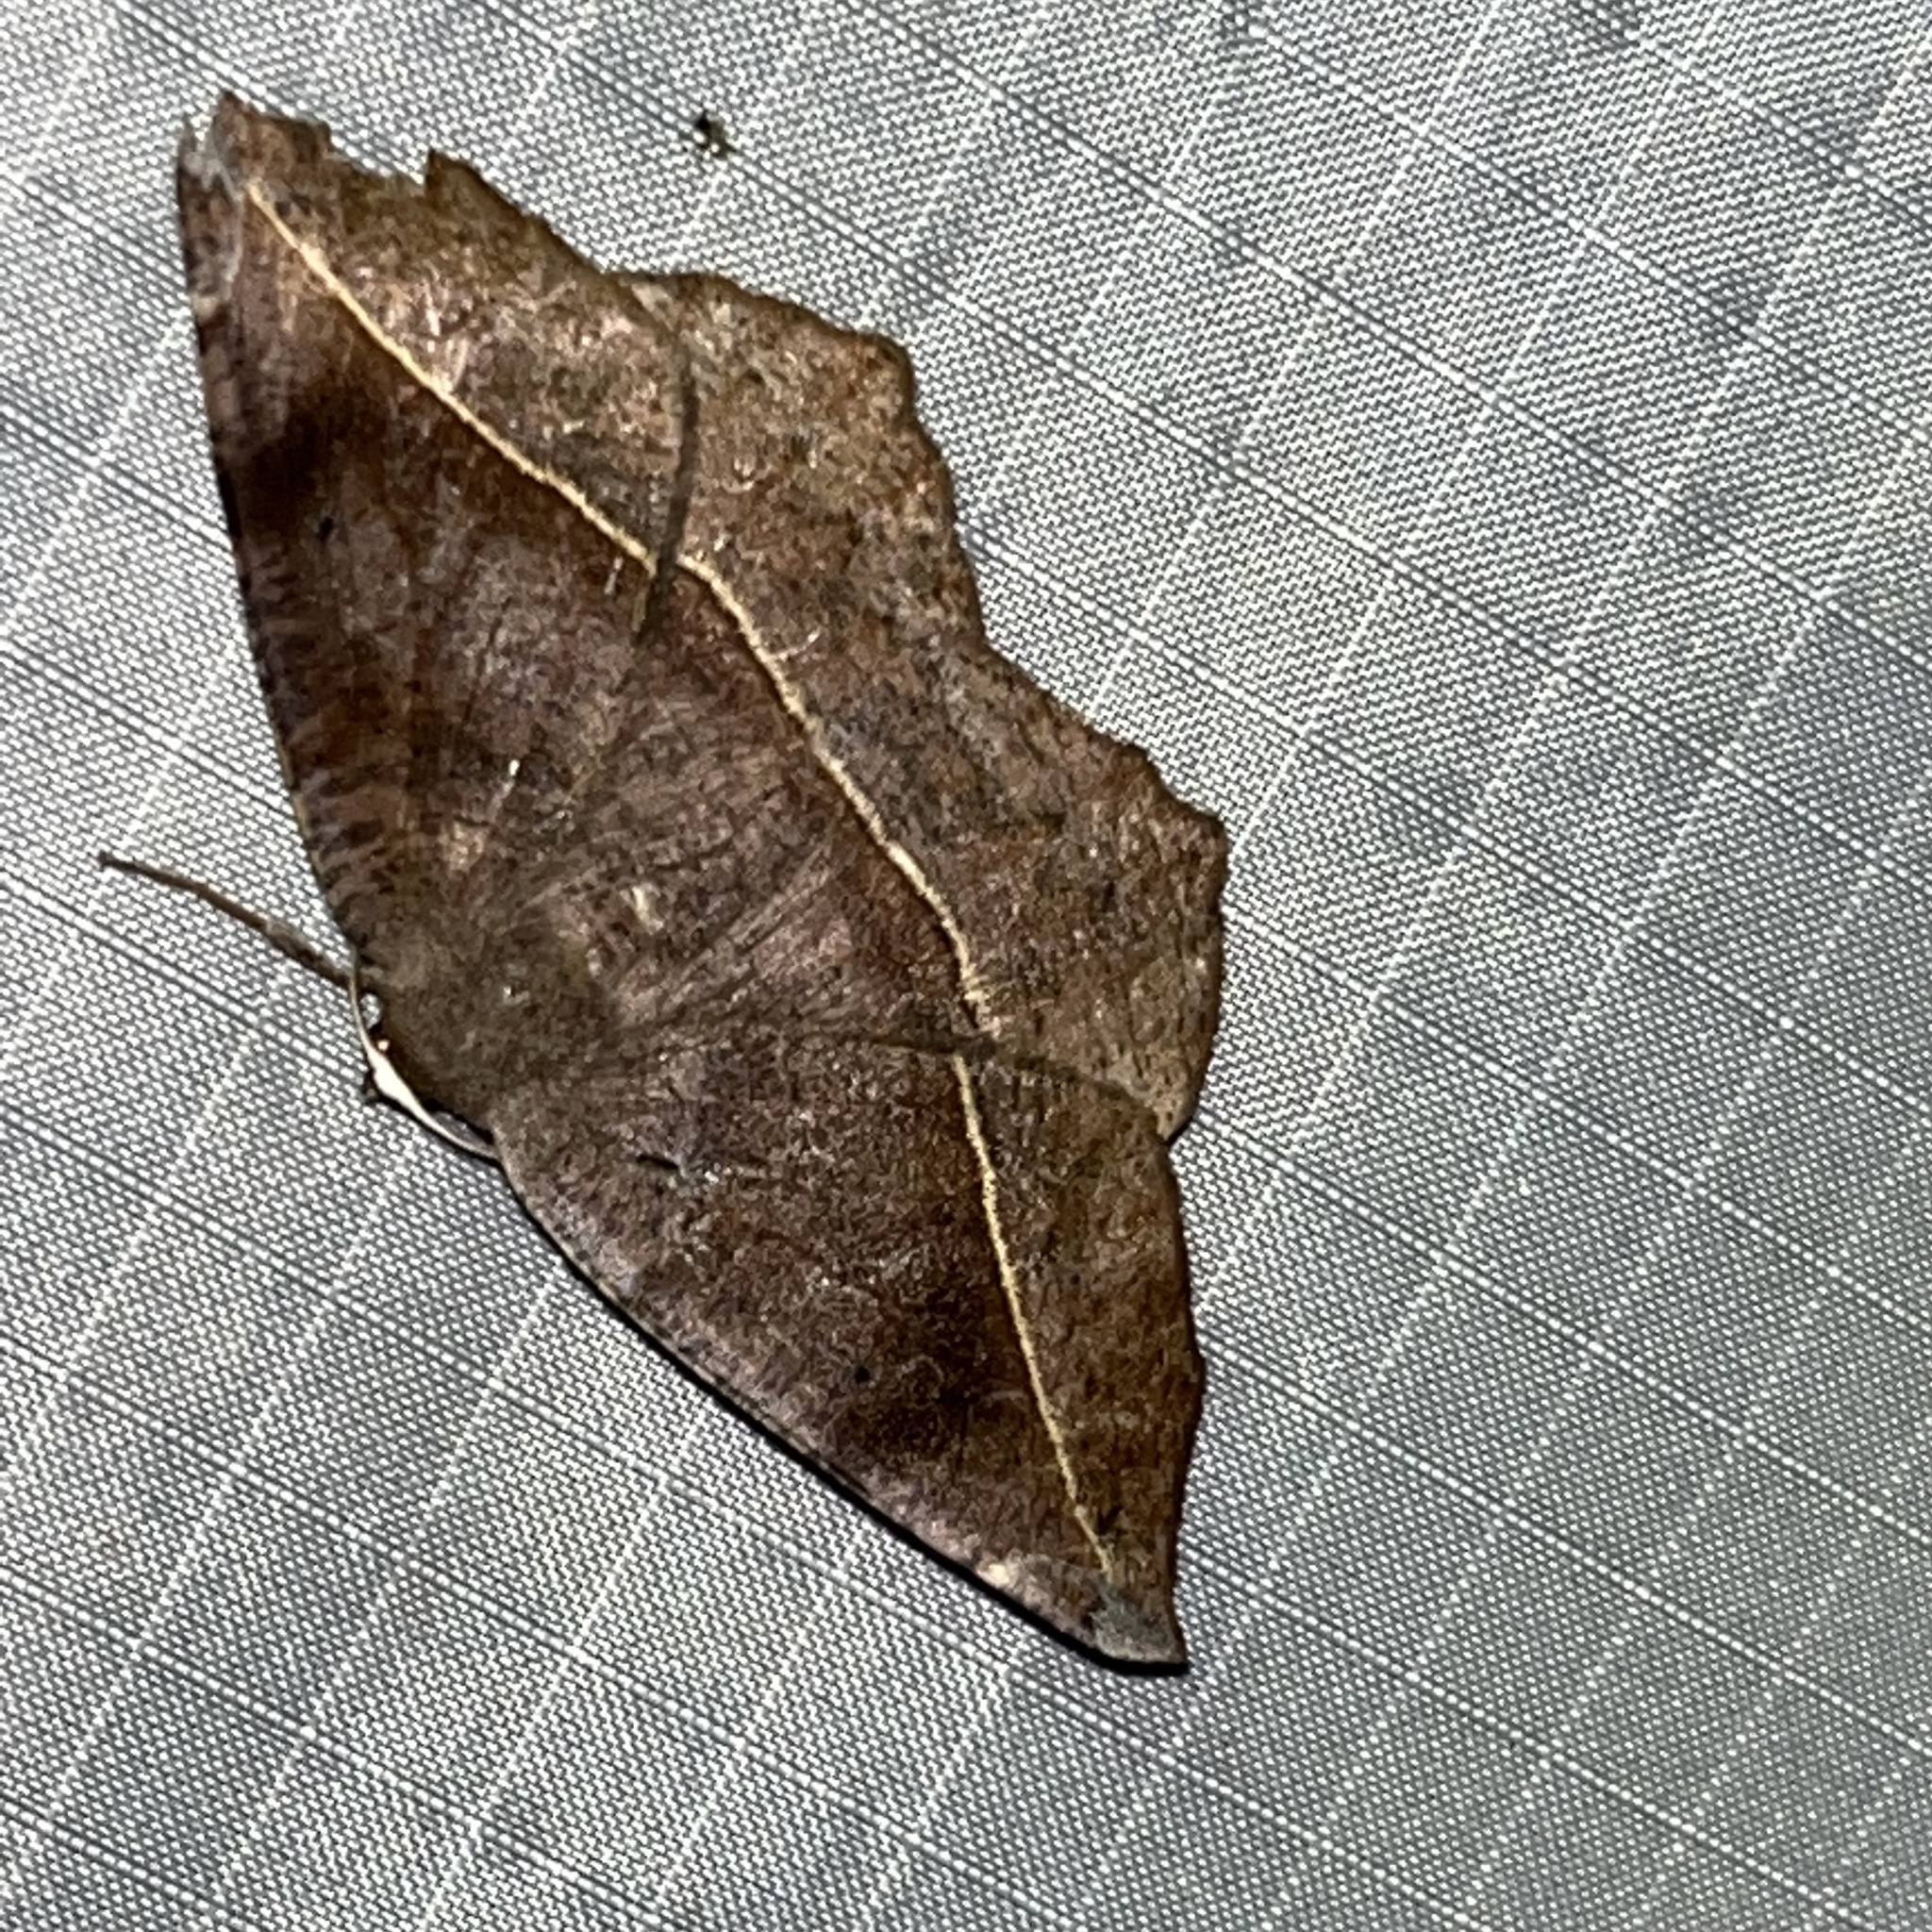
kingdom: Animalia
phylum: Arthropoda
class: Insecta
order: Lepidoptera
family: Geometridae
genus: Eutrapela
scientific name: Eutrapela clemataria
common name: Curved-toothed geometer
